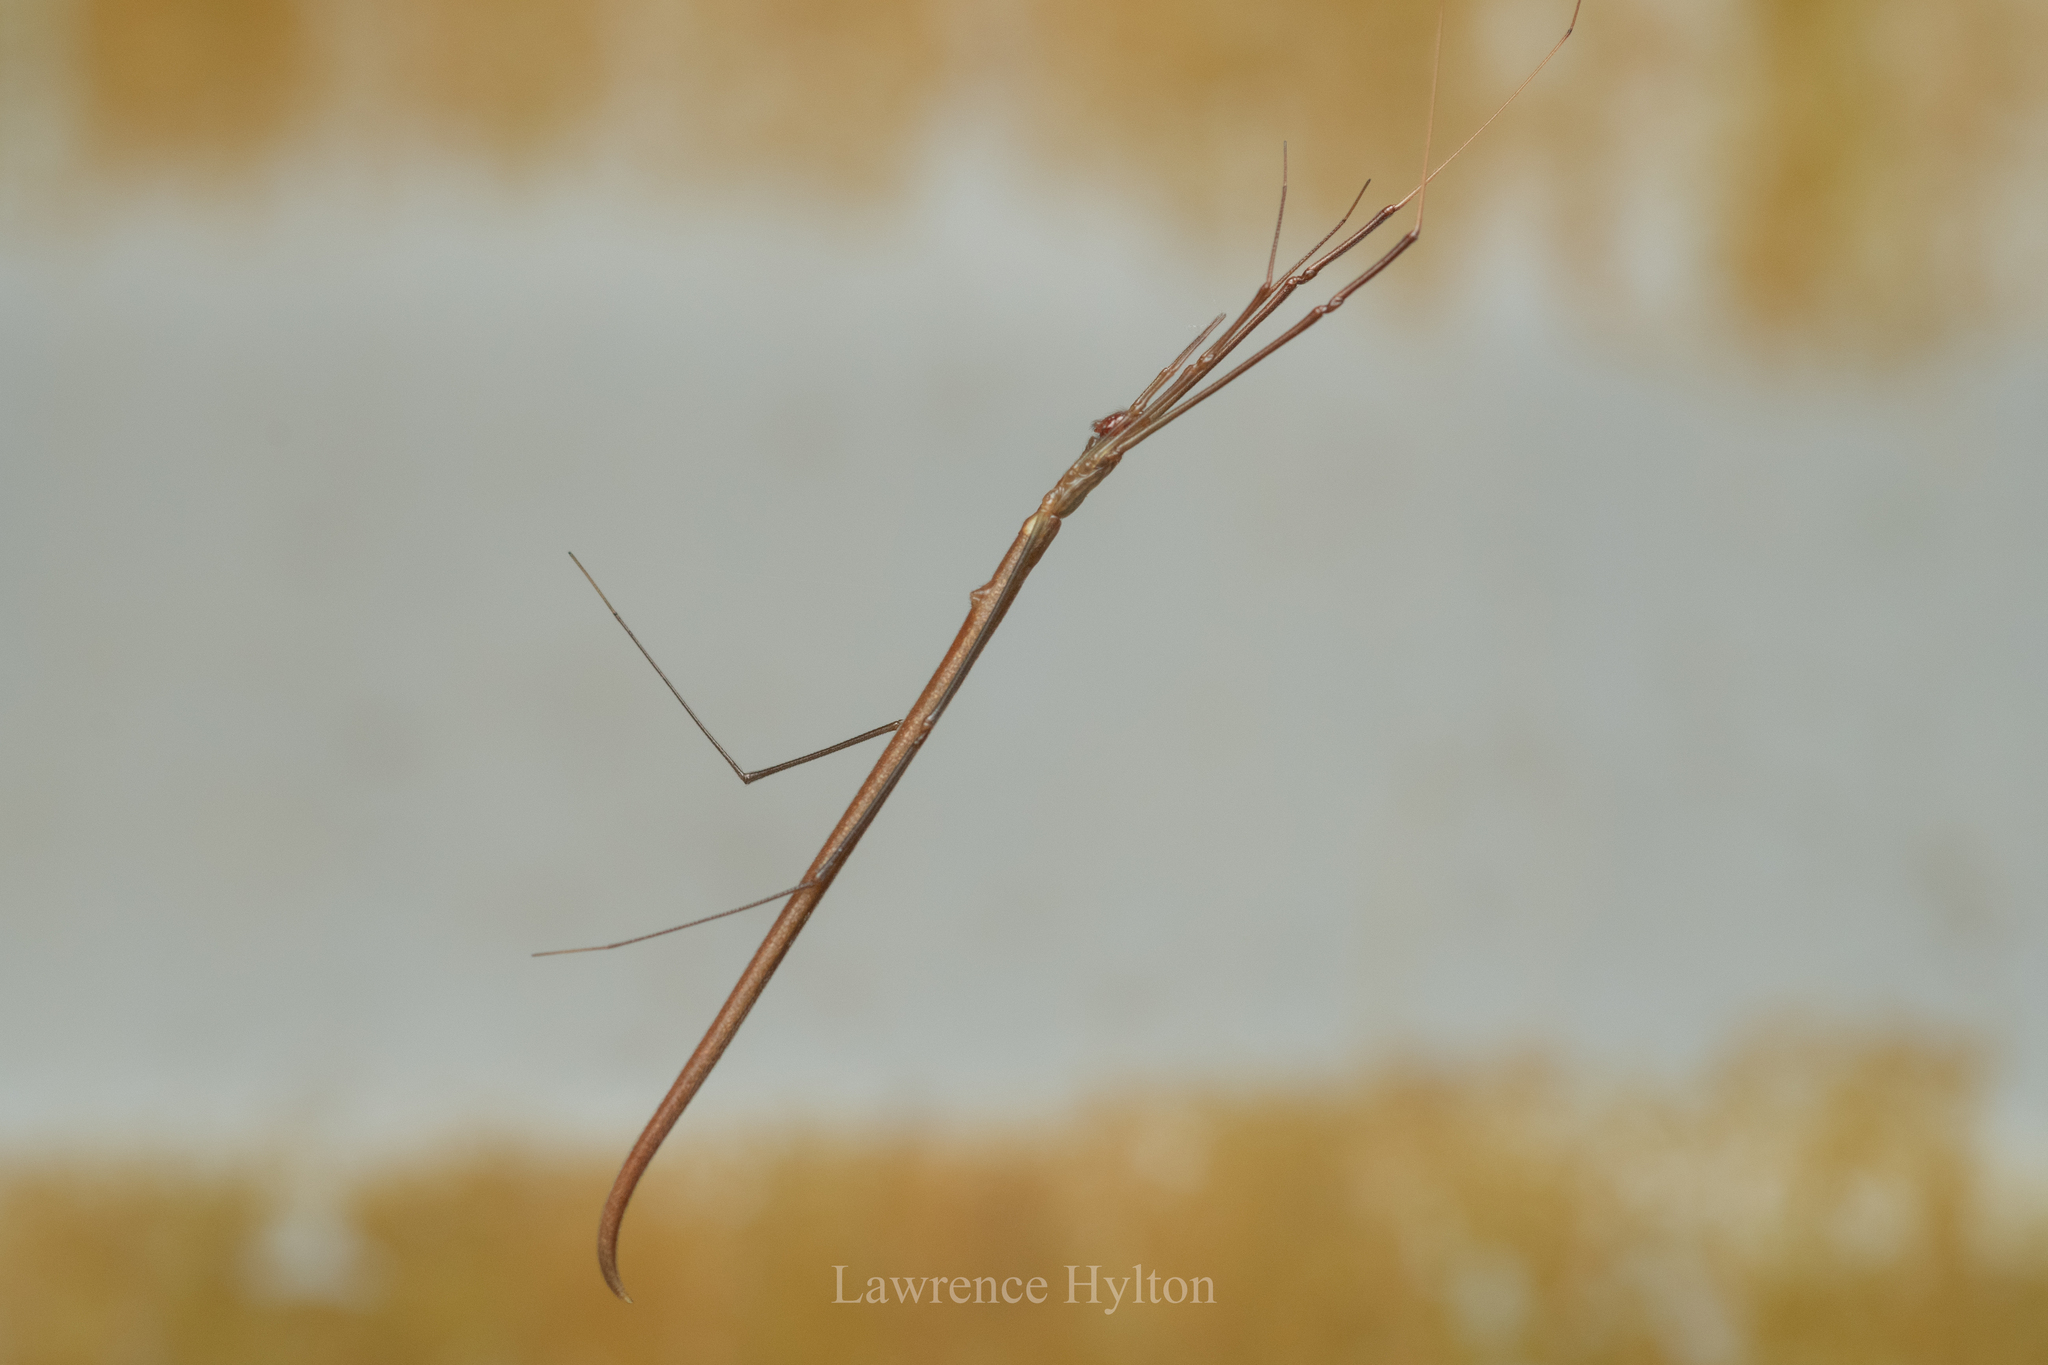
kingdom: Animalia
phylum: Arthropoda
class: Arachnida
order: Araneae
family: Theridiidae
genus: Ariamnes
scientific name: Ariamnes cylindrogaster
